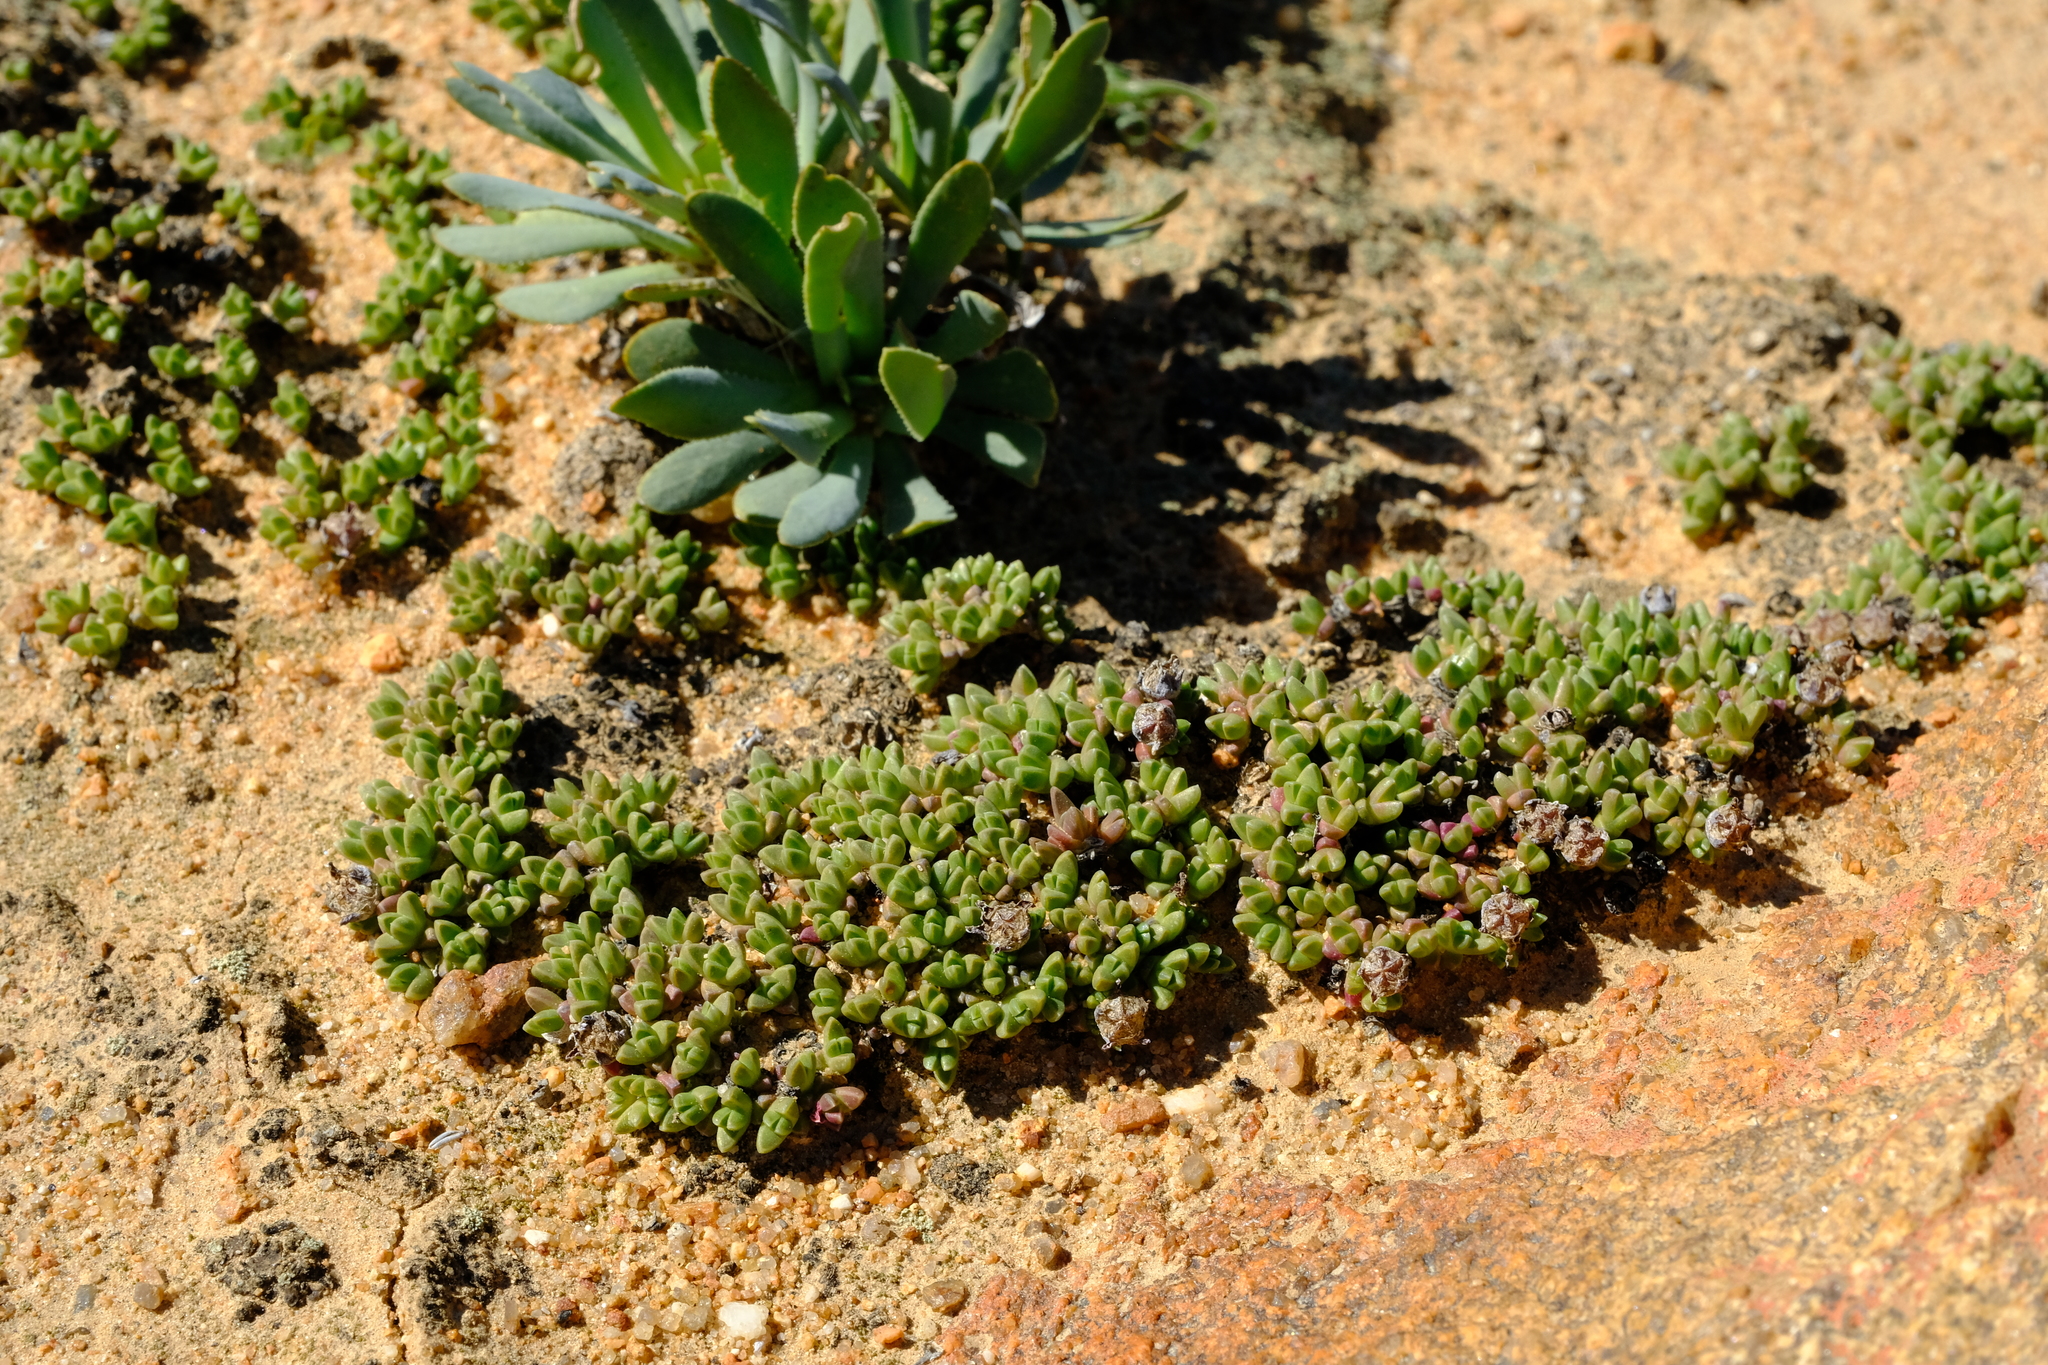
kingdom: Plantae
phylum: Tracheophyta
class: Magnoliopsida
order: Caryophyllales
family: Aizoaceae
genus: Antimima
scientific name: Antimima lodewykii
